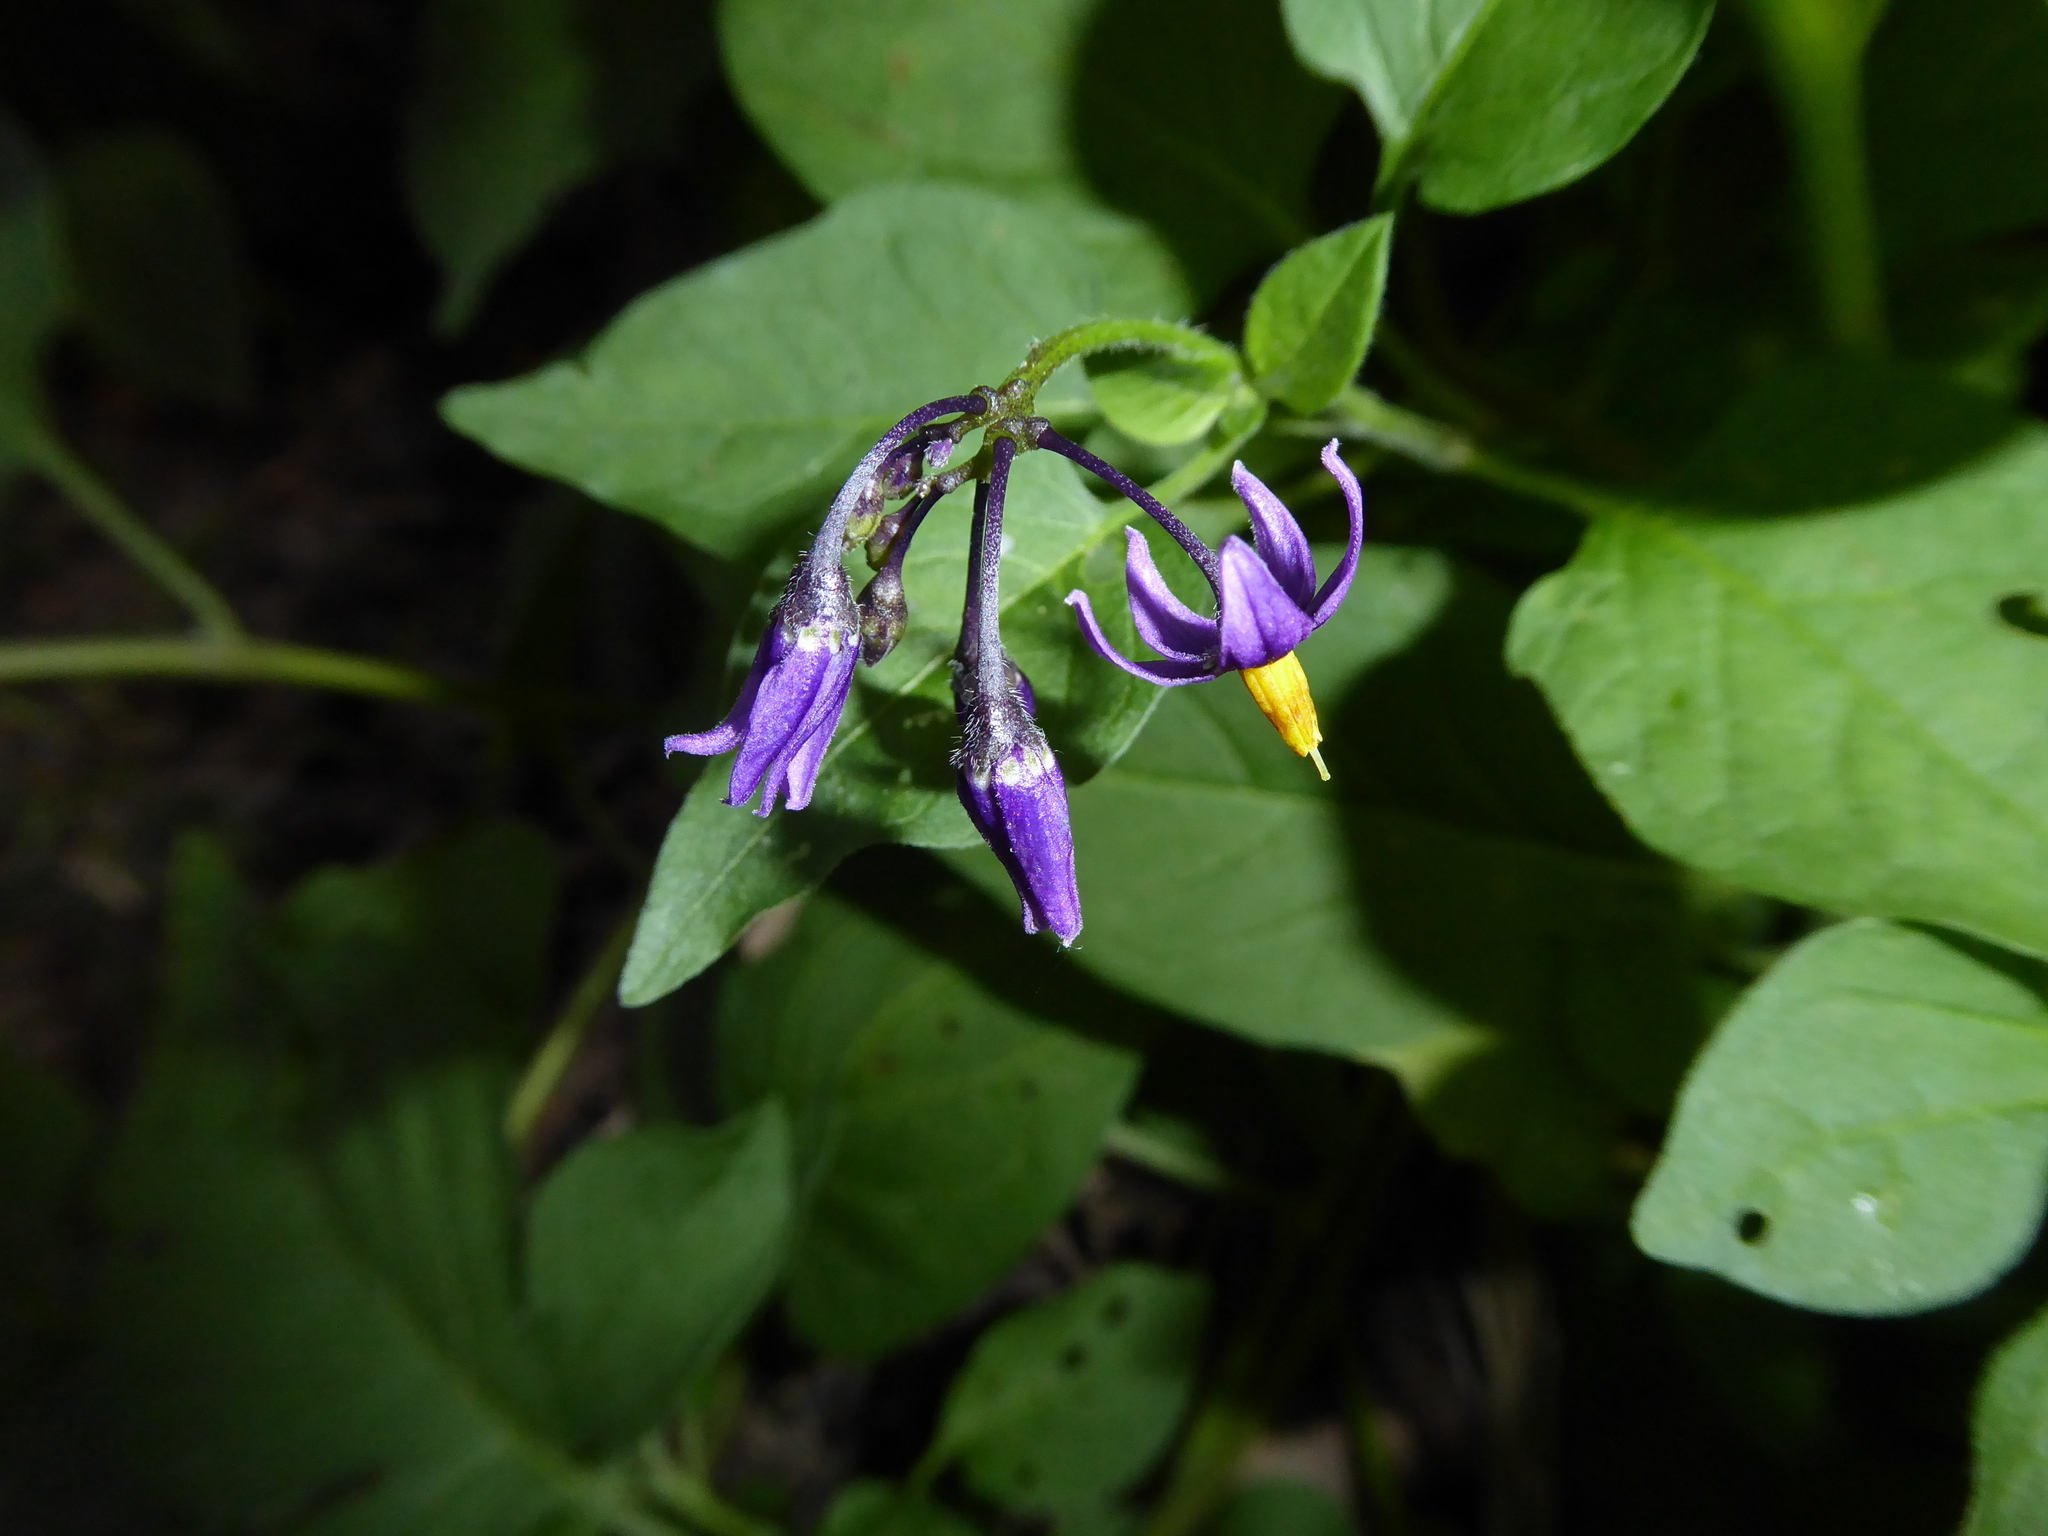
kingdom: Plantae
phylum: Tracheophyta
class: Magnoliopsida
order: Solanales
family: Solanaceae
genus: Solanum
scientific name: Solanum dulcamara
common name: Climbing nightshade
